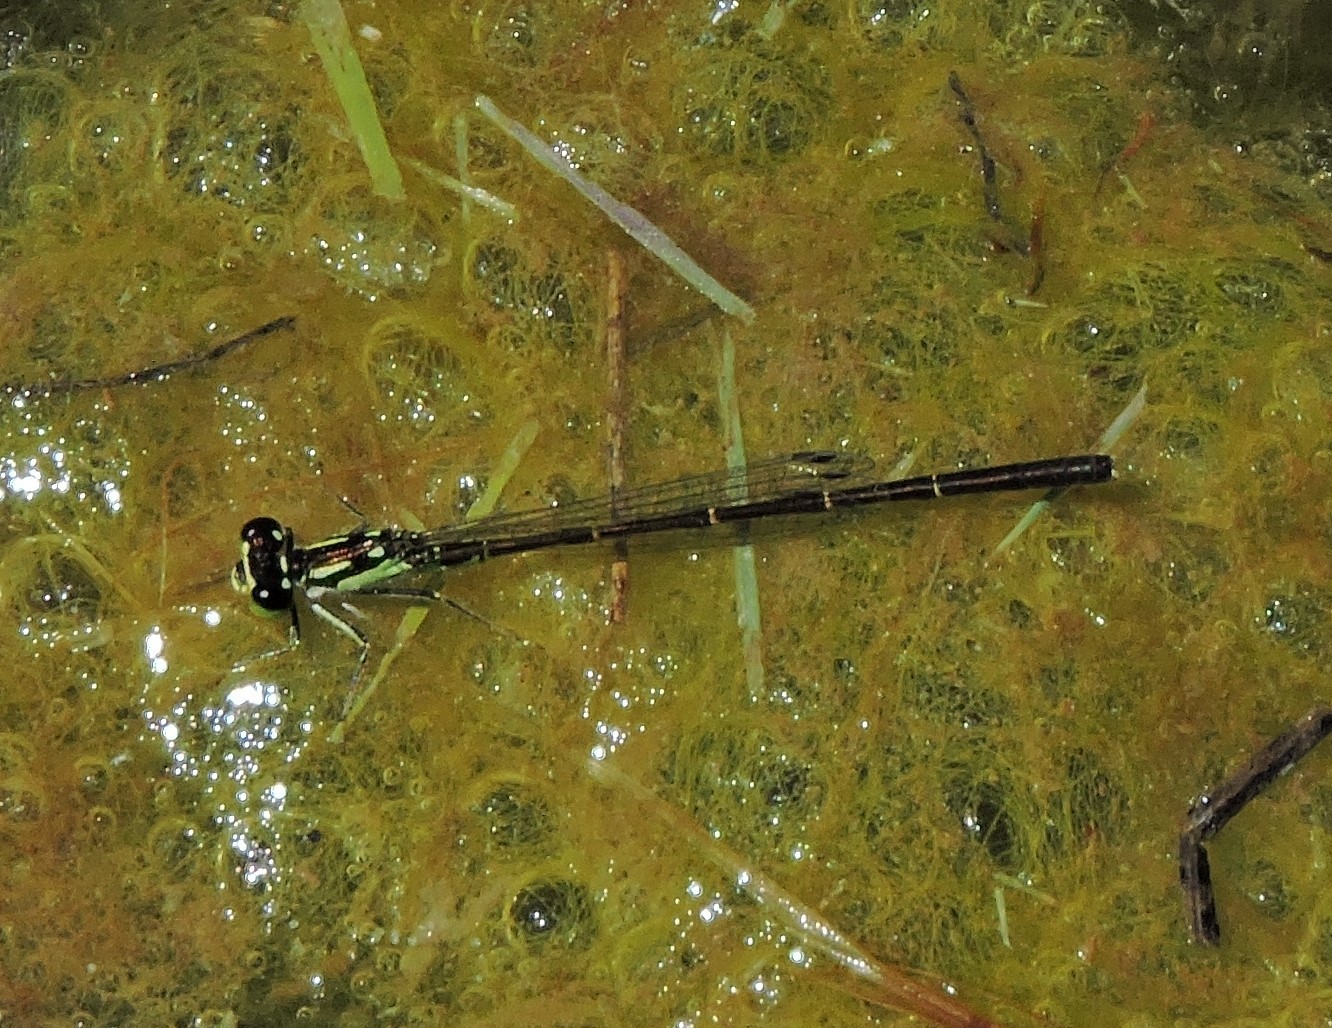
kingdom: Animalia
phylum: Arthropoda
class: Insecta
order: Odonata
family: Coenagrionidae
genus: Ischnura
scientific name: Ischnura posita
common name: Fragile forktail
